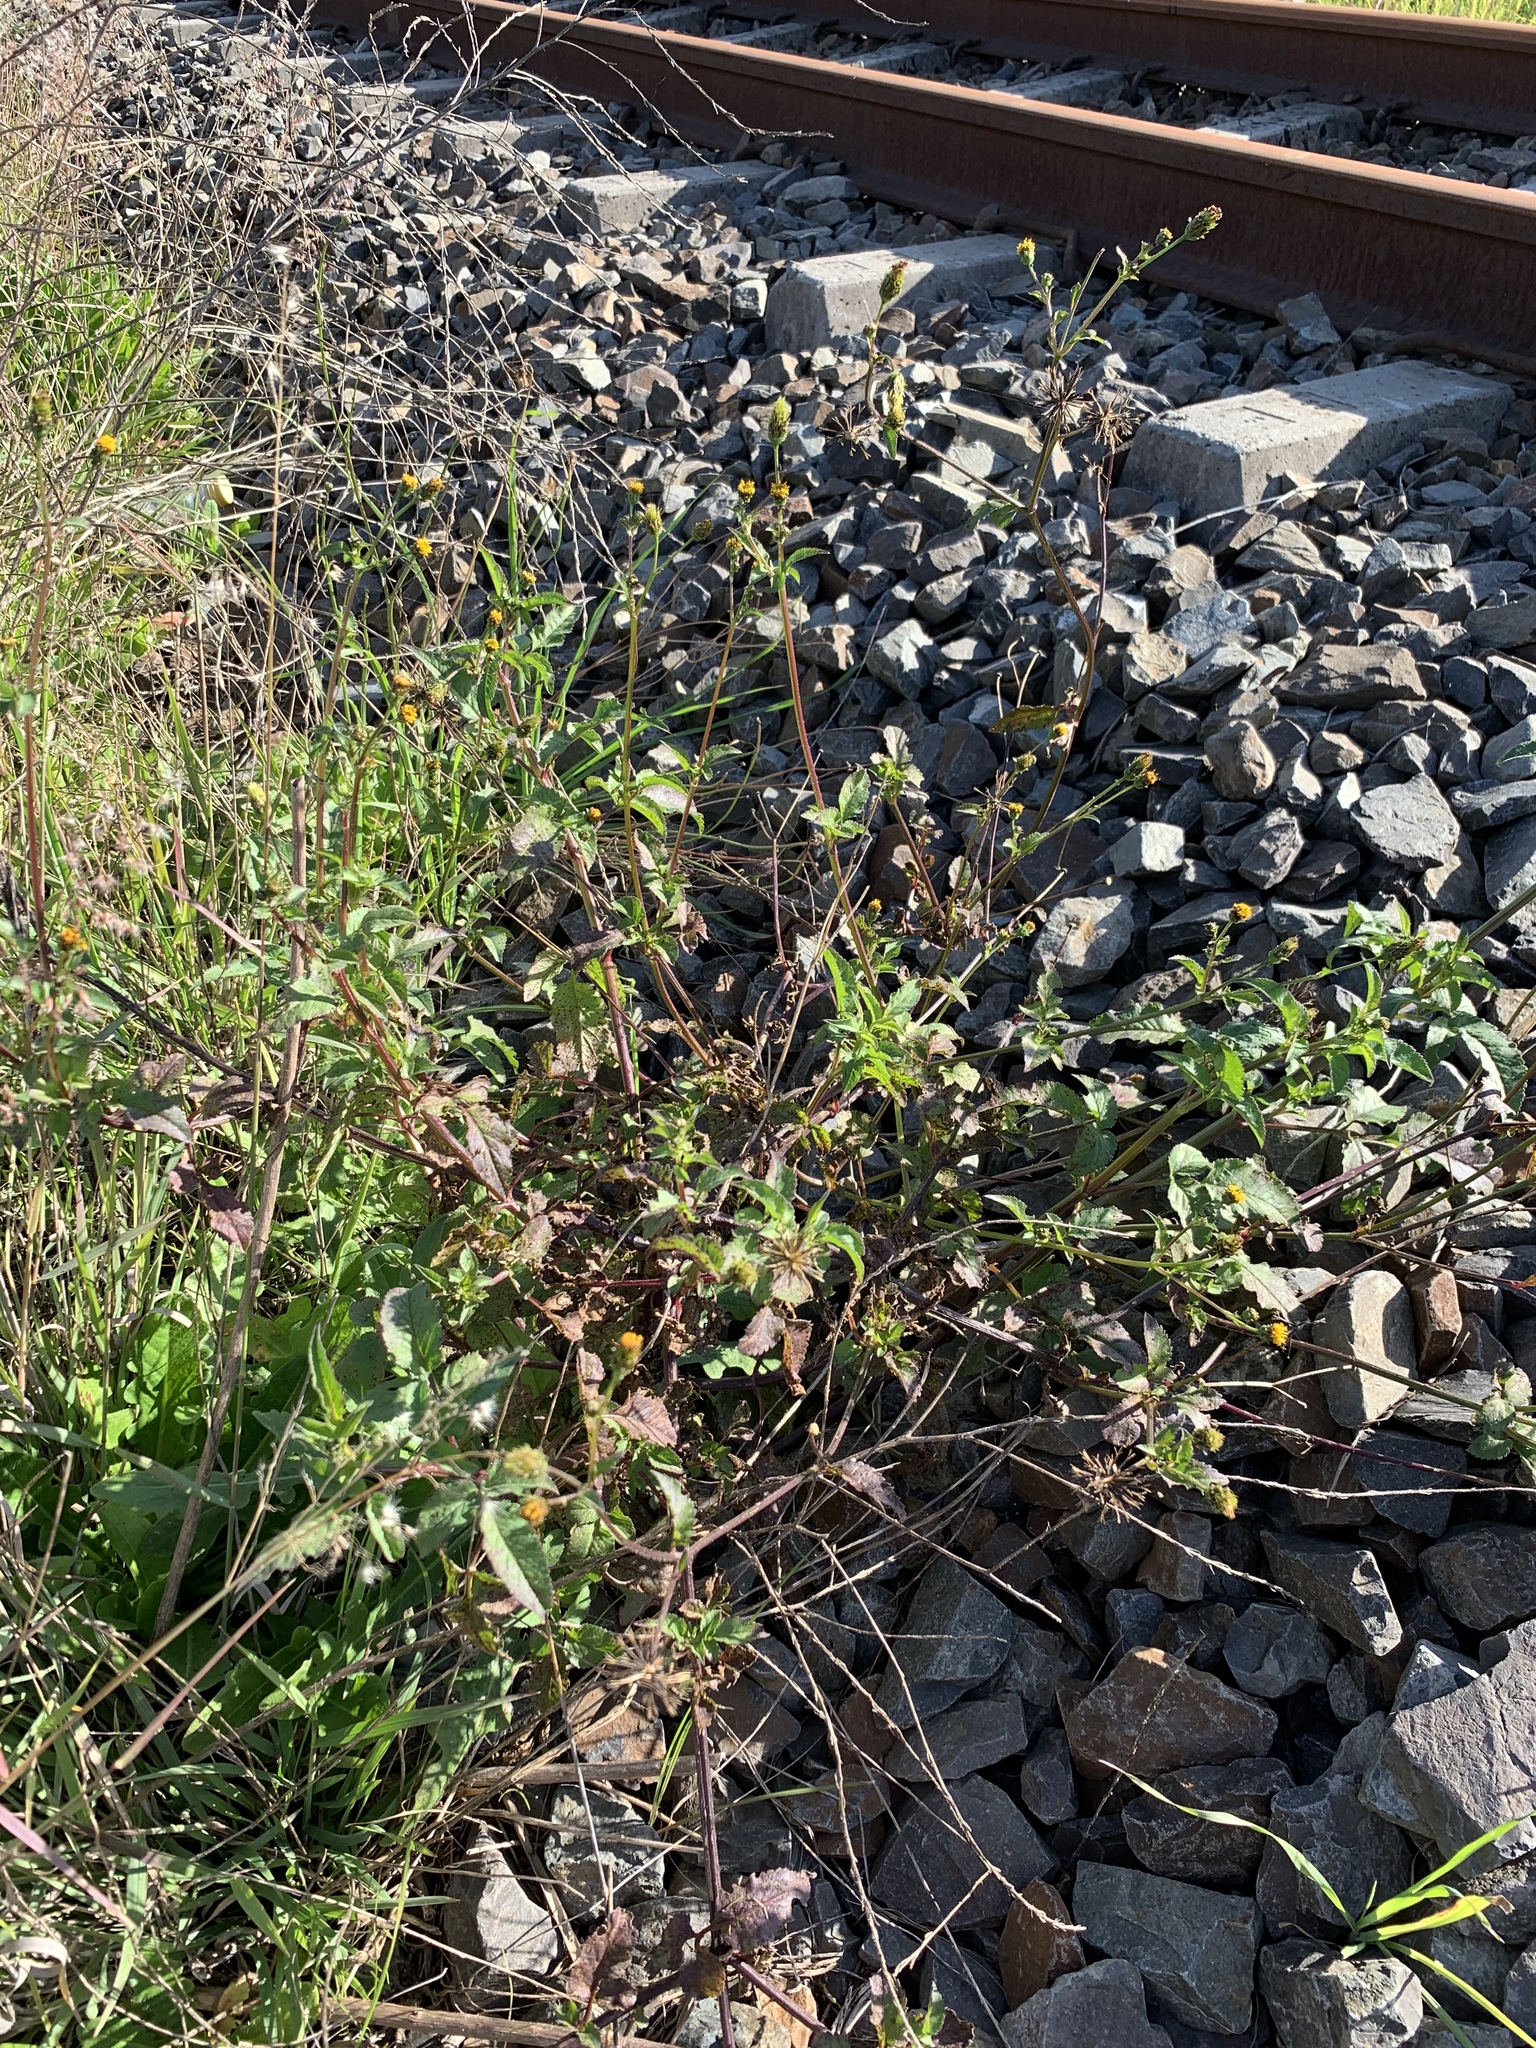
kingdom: Plantae
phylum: Tracheophyta
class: Magnoliopsida
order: Asterales
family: Asteraceae
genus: Bidens
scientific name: Bidens pilosa
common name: Black-jack
